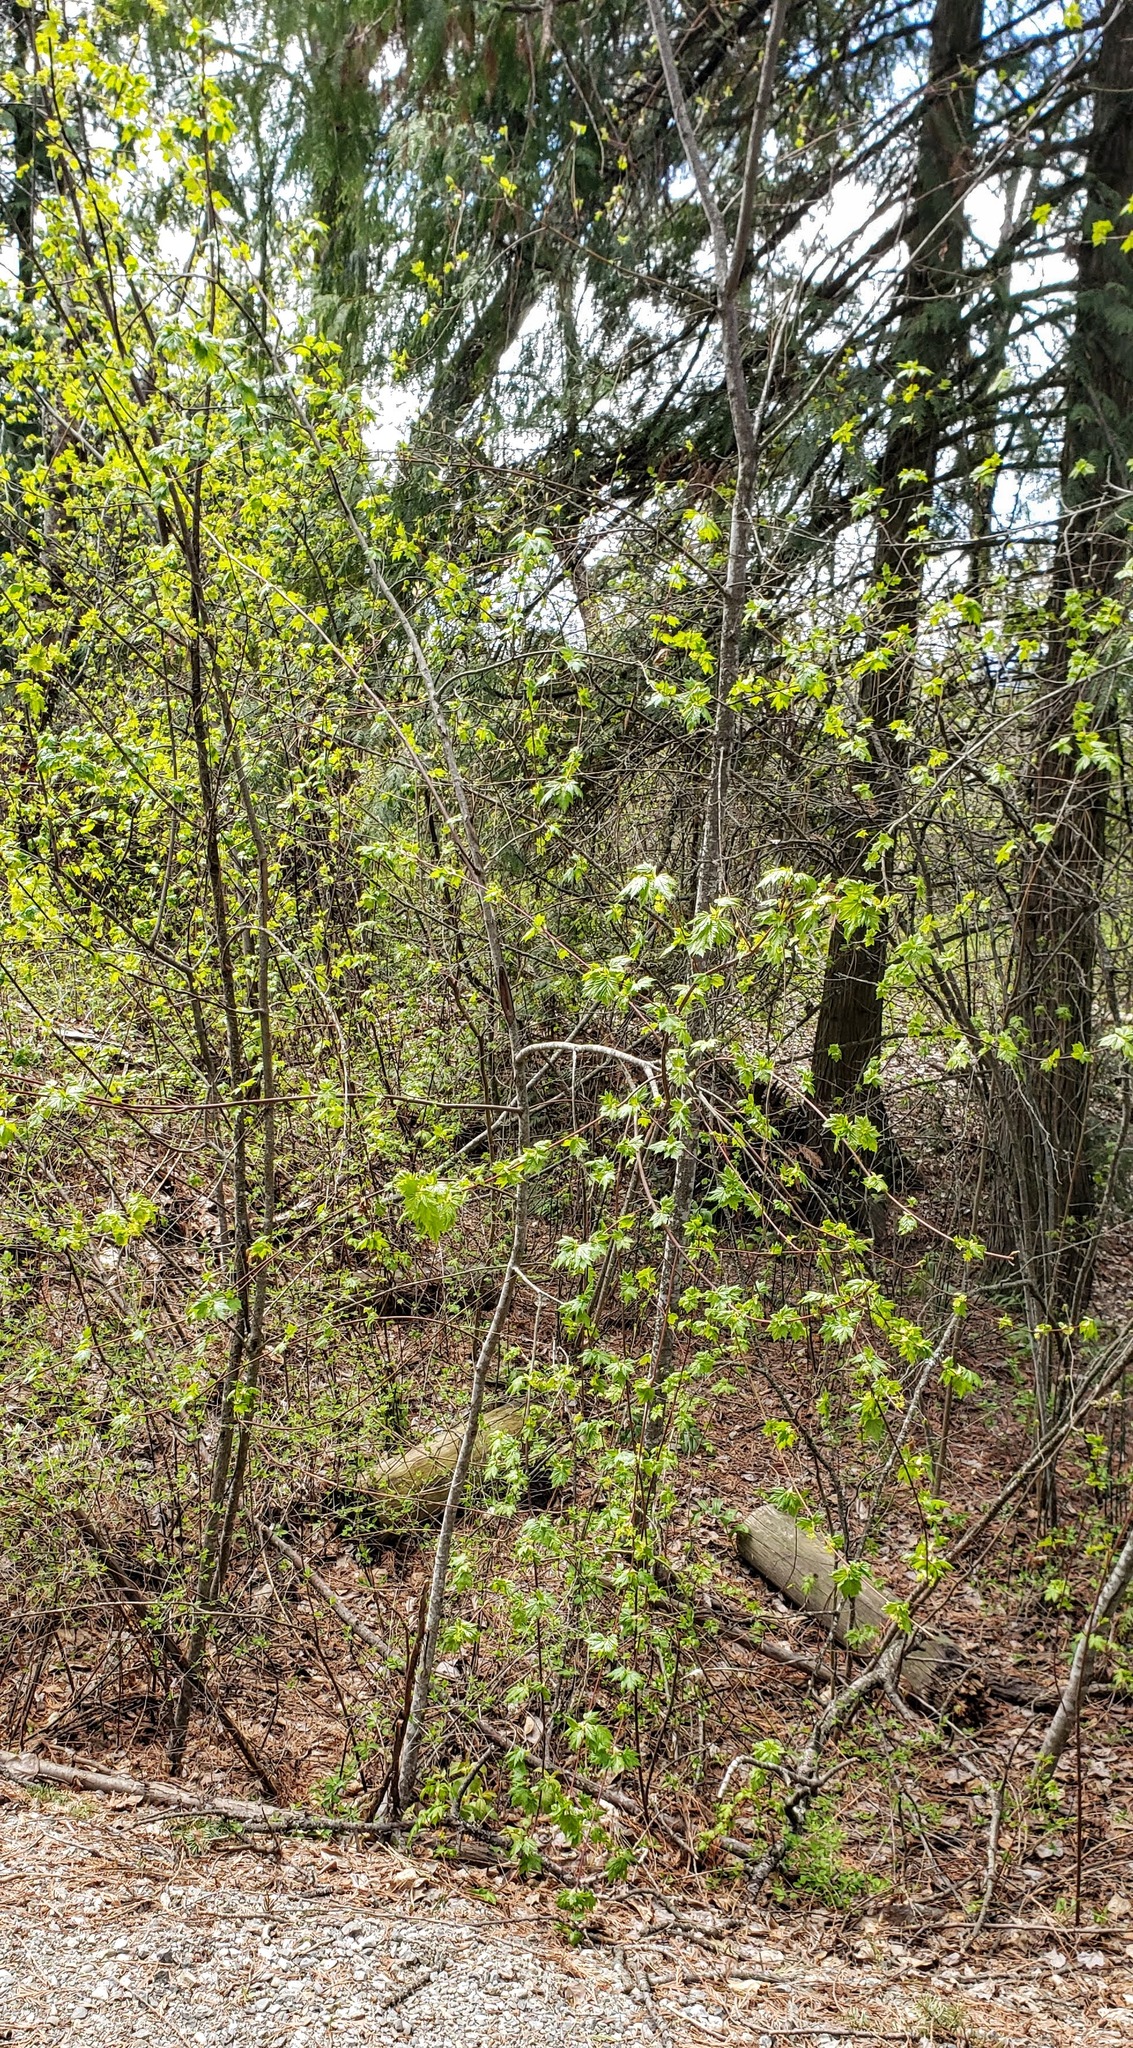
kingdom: Plantae
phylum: Tracheophyta
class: Magnoliopsida
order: Sapindales
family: Sapindaceae
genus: Acer
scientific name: Acer glabrum
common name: Rocky mountain maple
